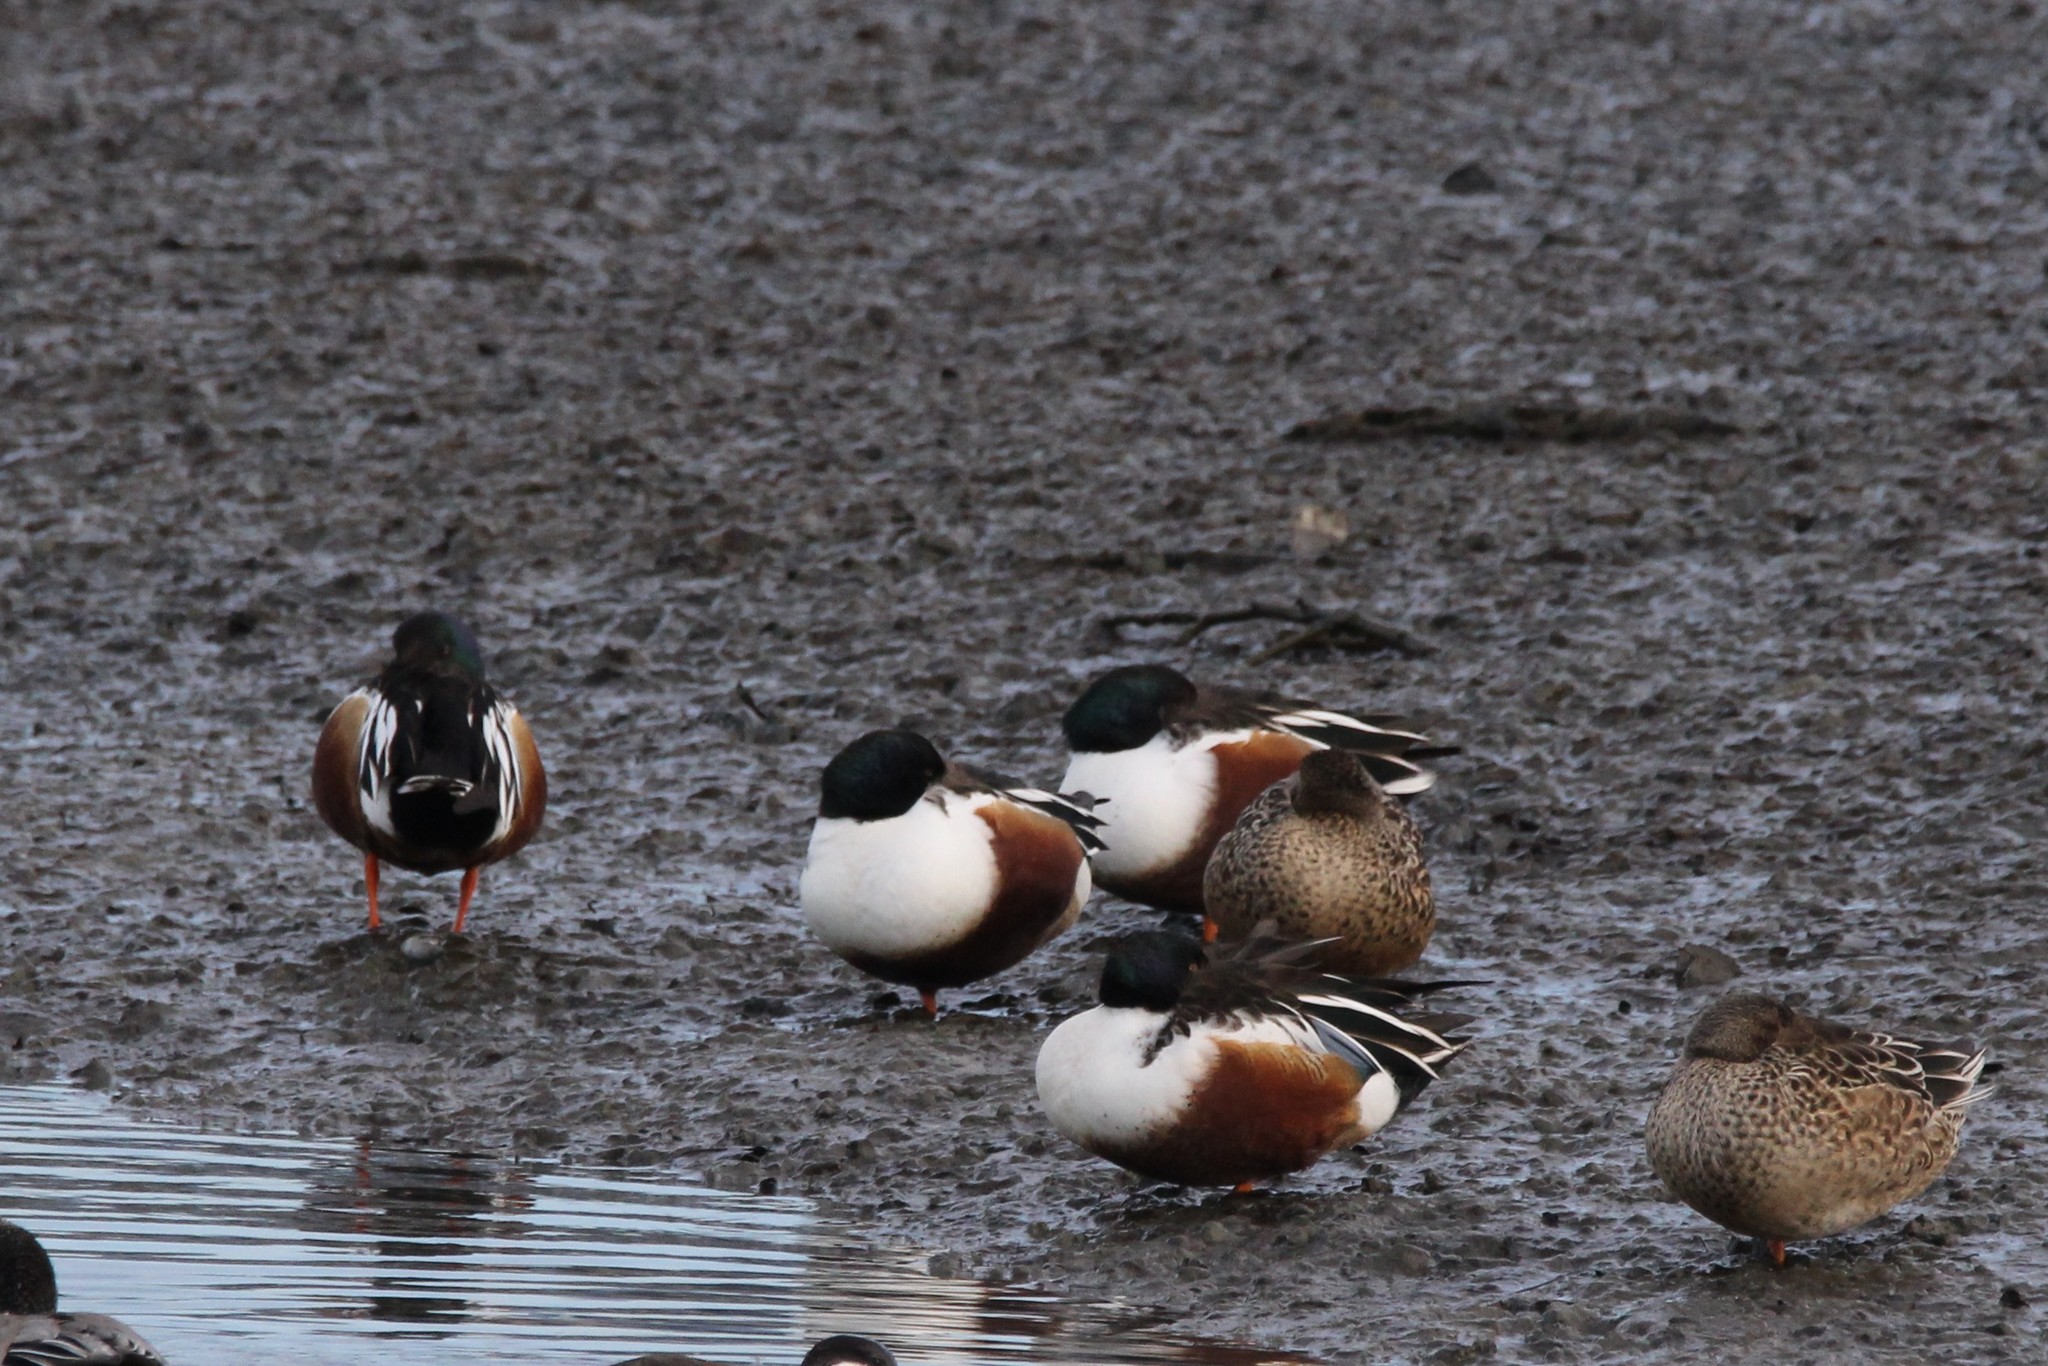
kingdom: Animalia
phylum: Chordata
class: Aves
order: Anseriformes
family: Anatidae
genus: Spatula
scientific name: Spatula clypeata
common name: Northern shoveler
